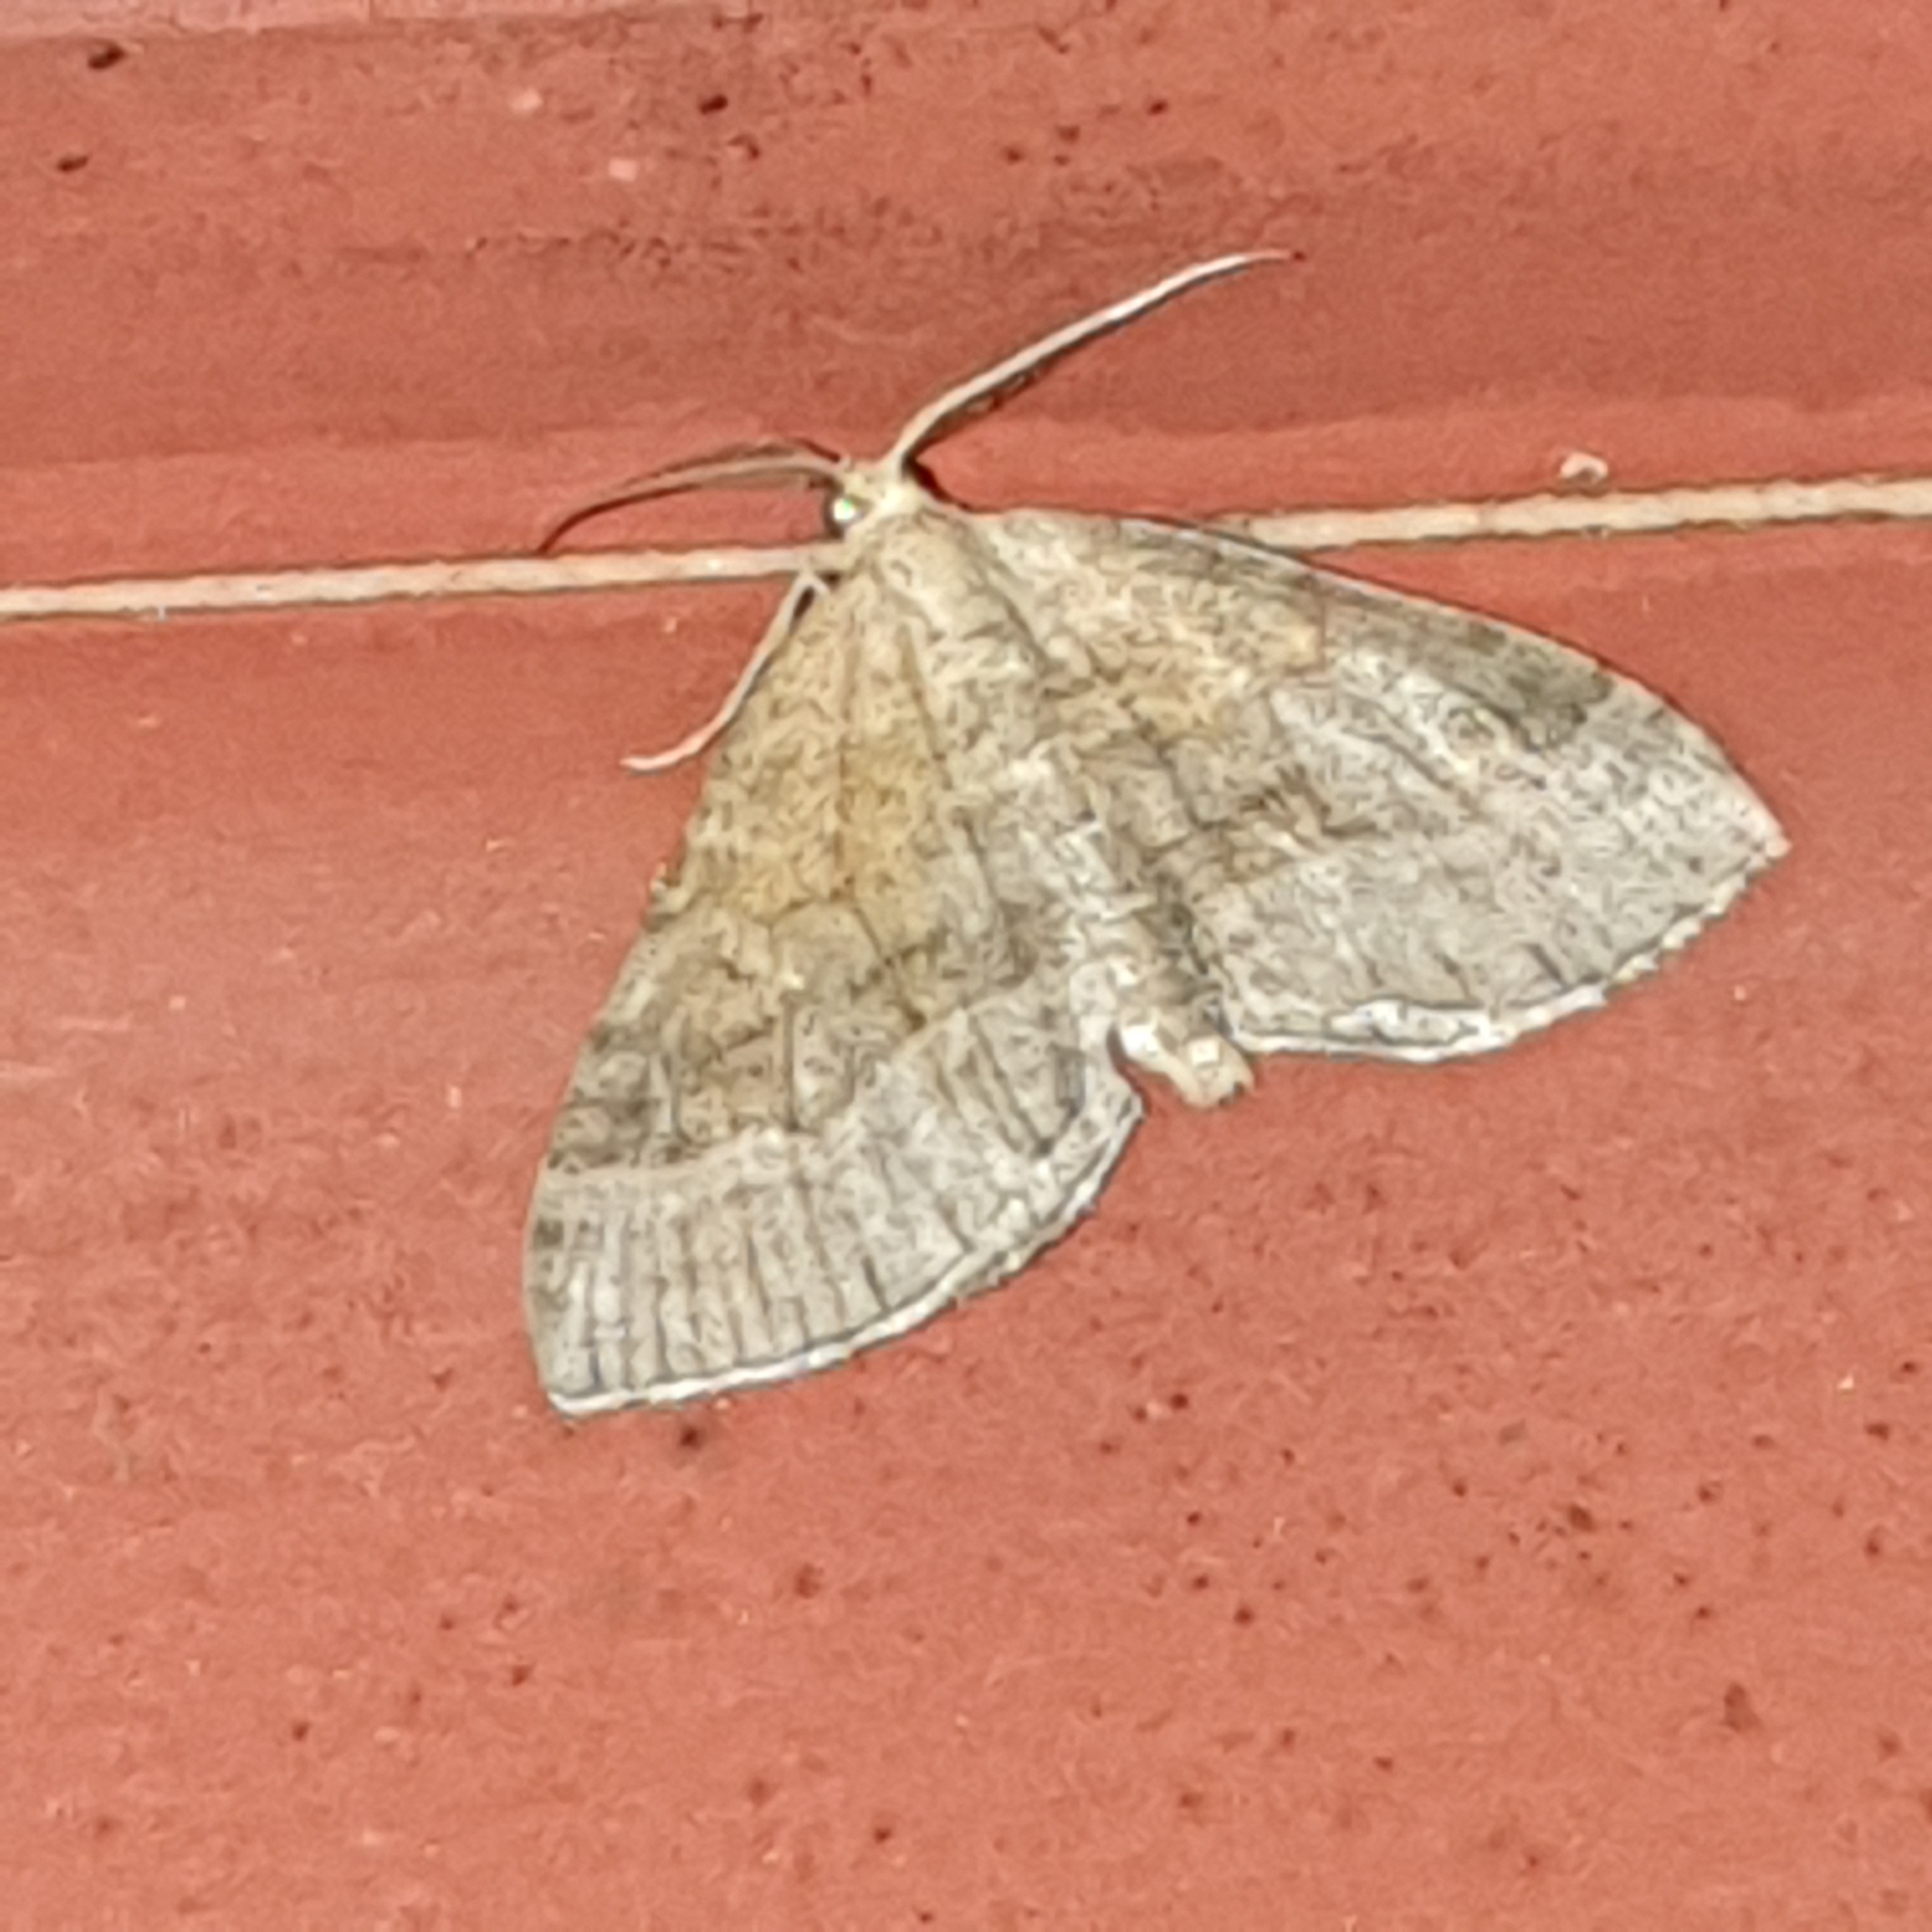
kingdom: Animalia
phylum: Arthropoda
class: Insecta
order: Lepidoptera
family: Geometridae
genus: Scotopteryx
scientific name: Scotopteryx chenopodiata
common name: Shaded broad-bar
